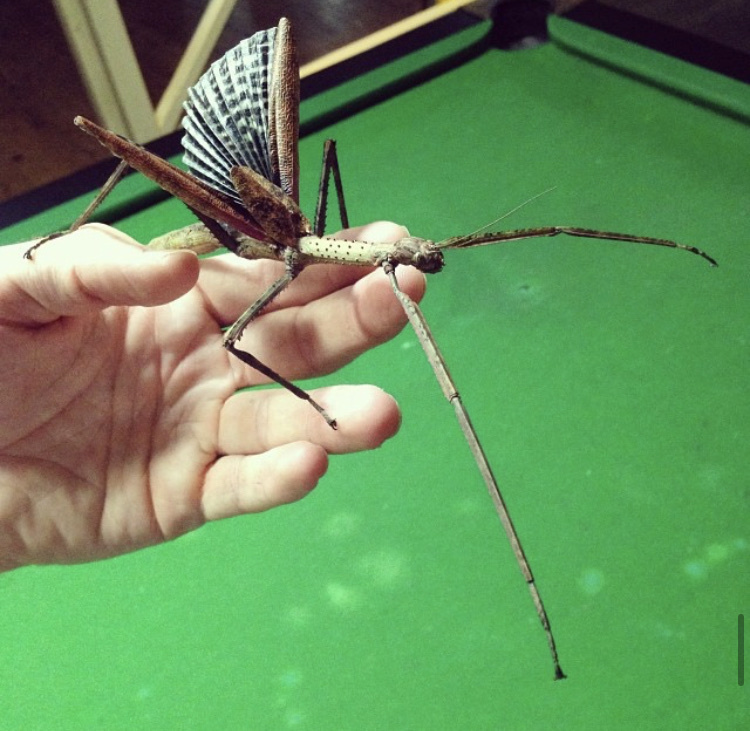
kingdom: Animalia
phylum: Arthropoda
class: Insecta
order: Phasmida
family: Phasmatidae
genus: Anchiale
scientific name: Anchiale briareus
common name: Strong stick insect
